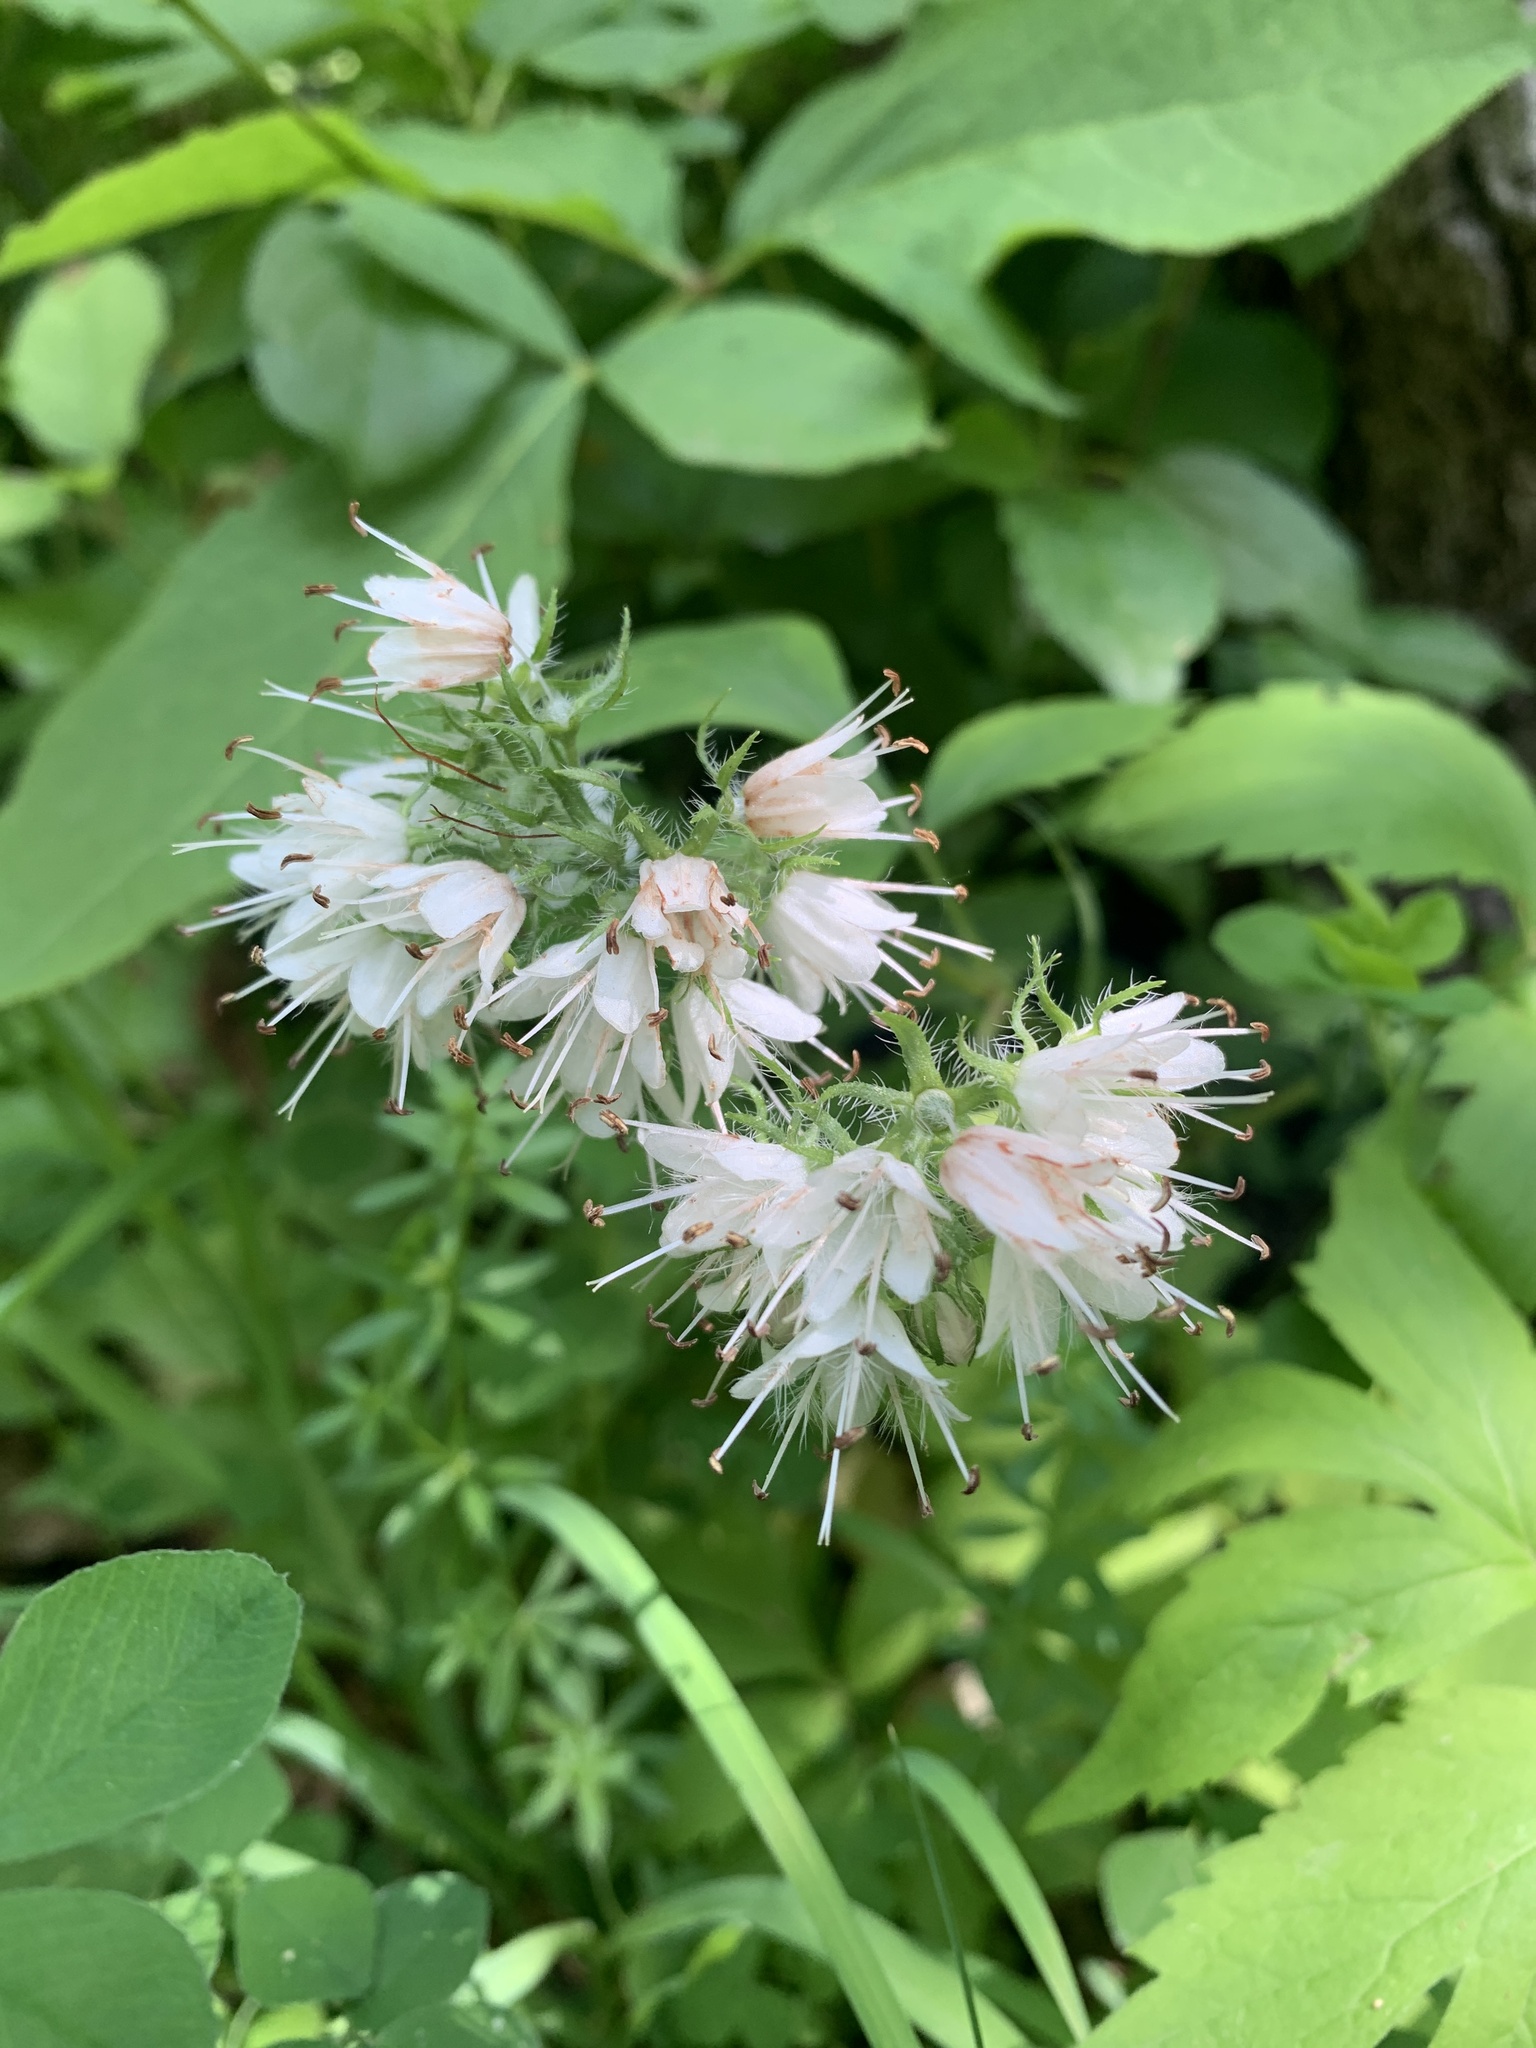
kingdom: Plantae
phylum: Tracheophyta
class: Magnoliopsida
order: Boraginales
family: Hydrophyllaceae
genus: Hydrophyllum
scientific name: Hydrophyllum virginianum
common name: Virginia waterleaf
